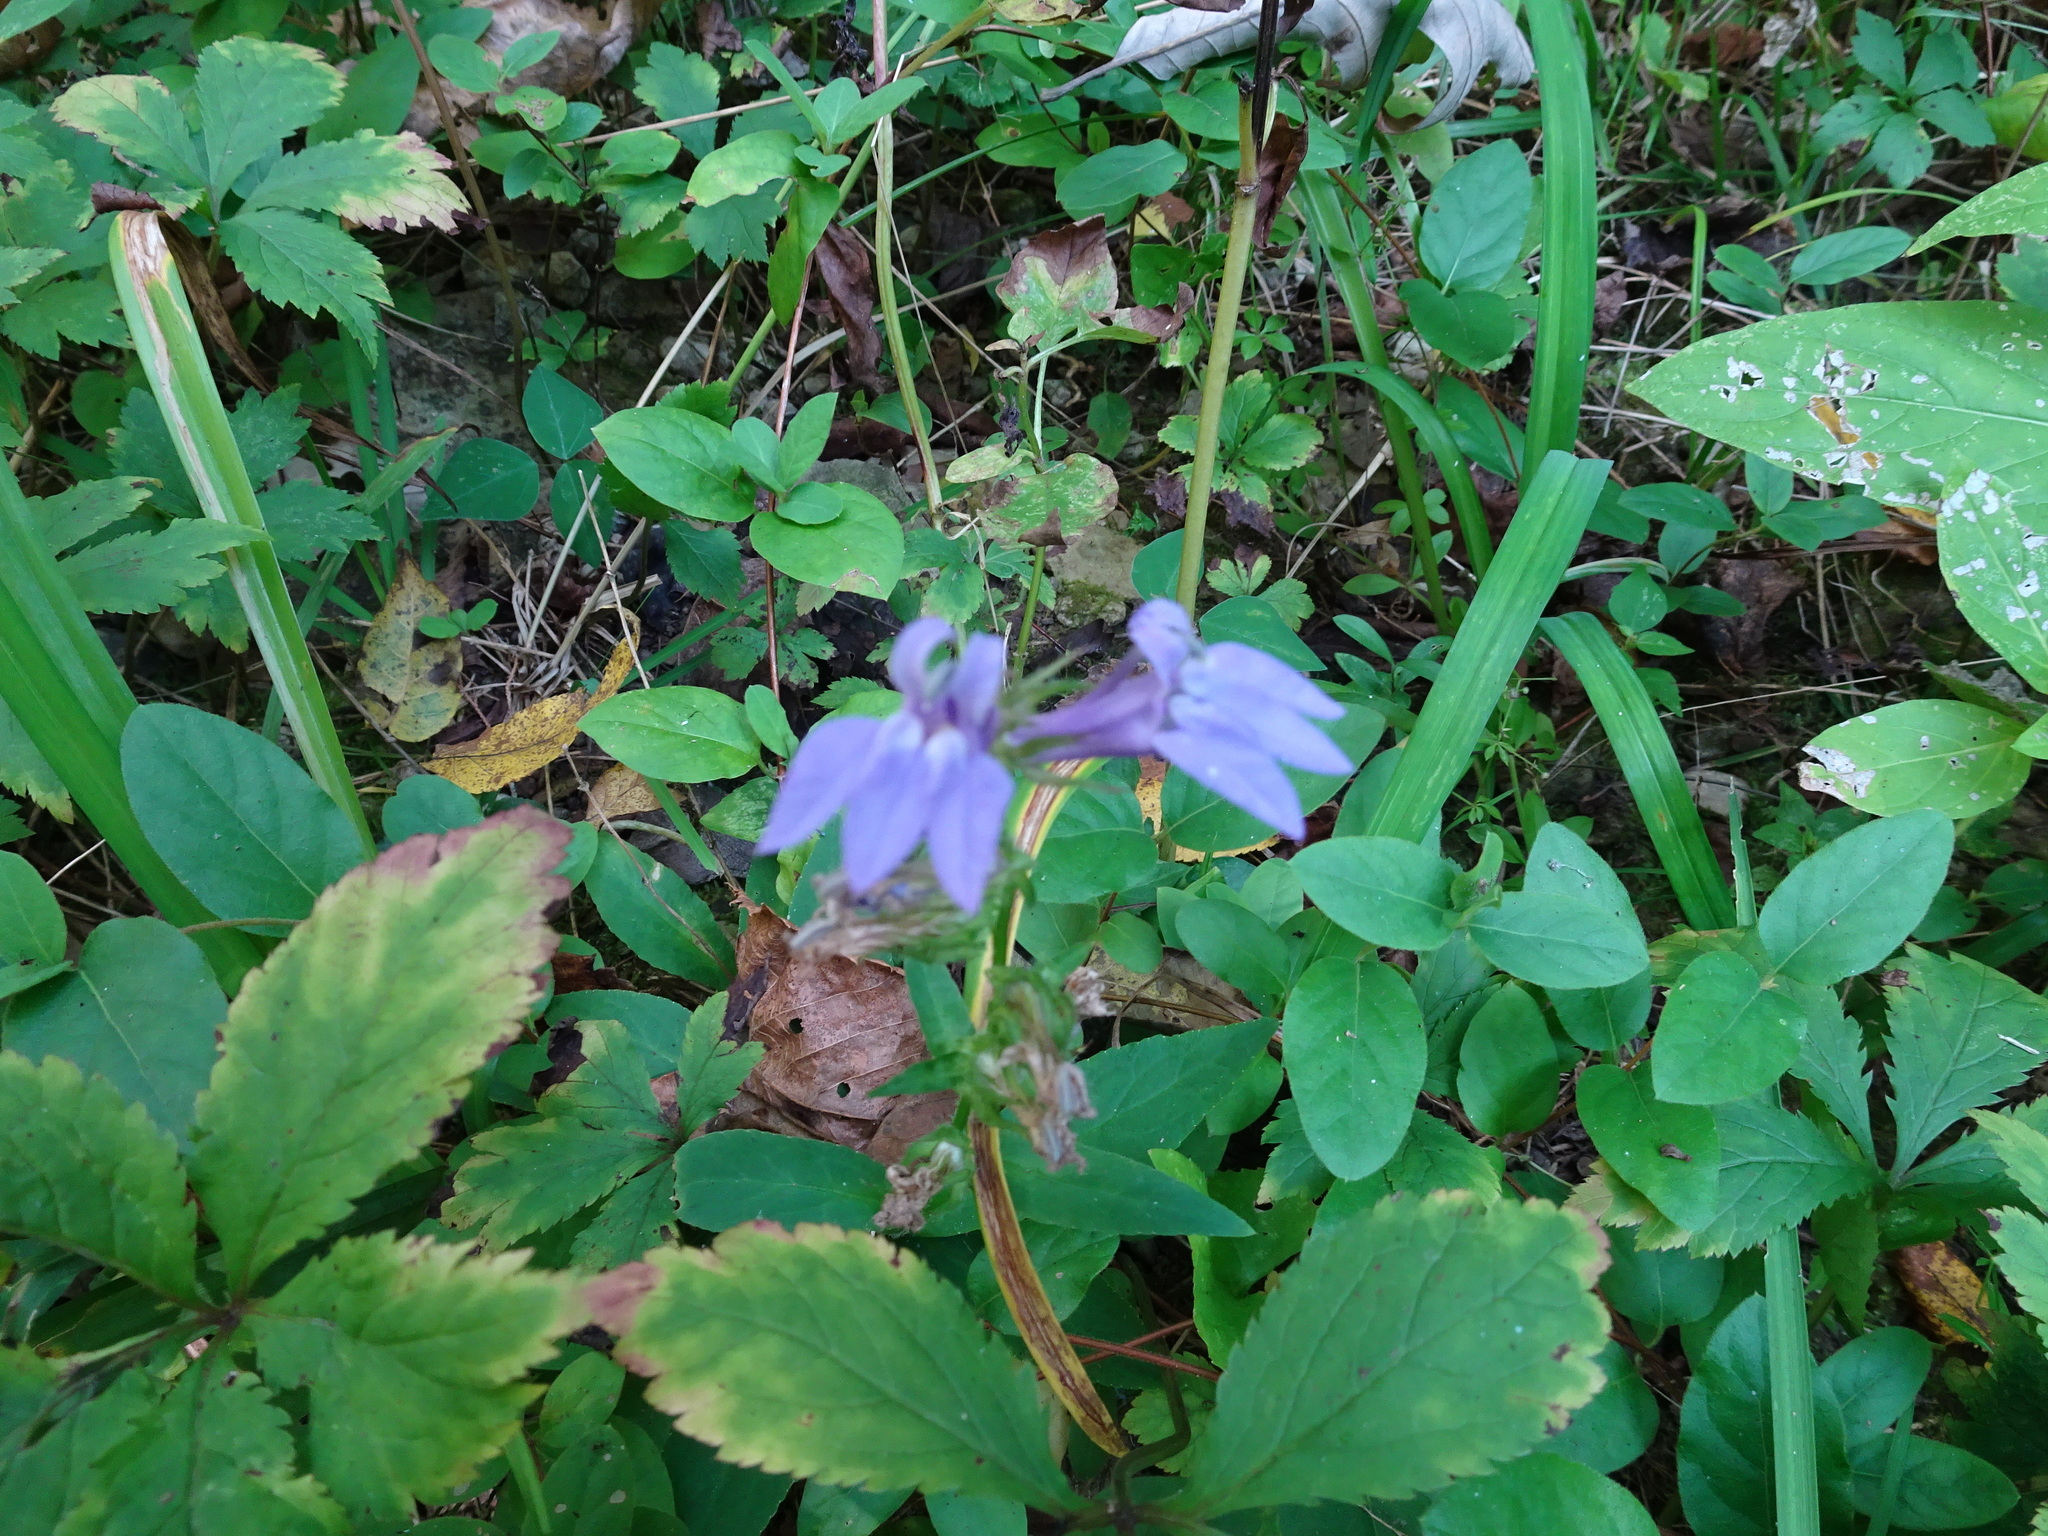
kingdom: Plantae
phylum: Tracheophyta
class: Magnoliopsida
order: Asterales
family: Campanulaceae
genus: Lobelia
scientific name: Lobelia siphilitica
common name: Great lobelia
